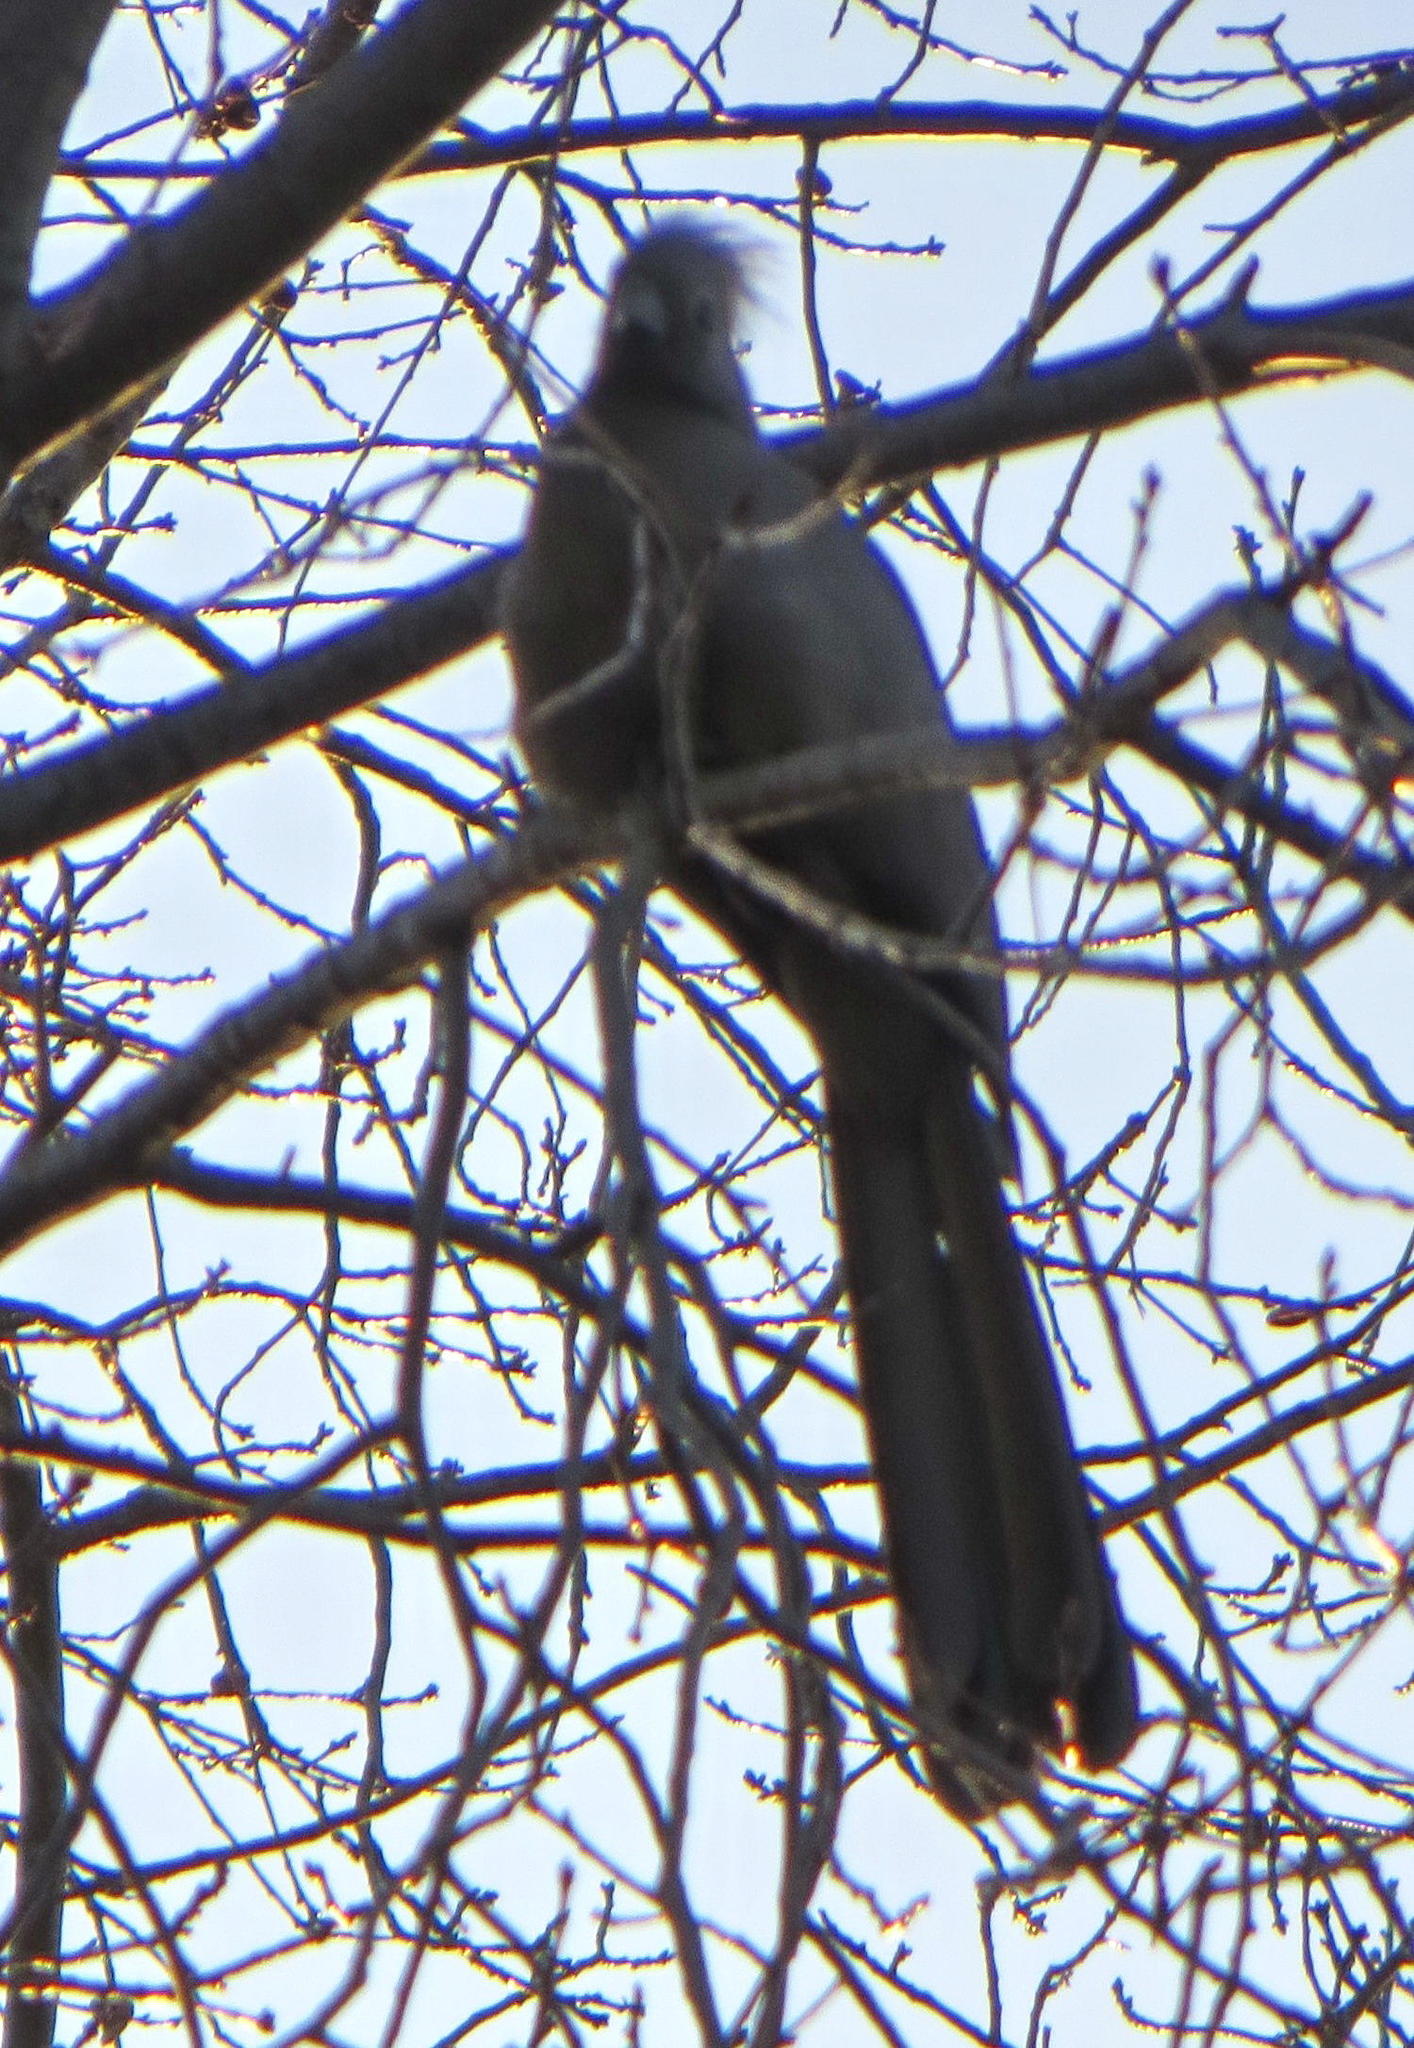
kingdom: Animalia
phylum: Chordata
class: Aves
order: Musophagiformes
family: Musophagidae
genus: Corythaixoides
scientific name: Corythaixoides concolor
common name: Grey go-away-bird
